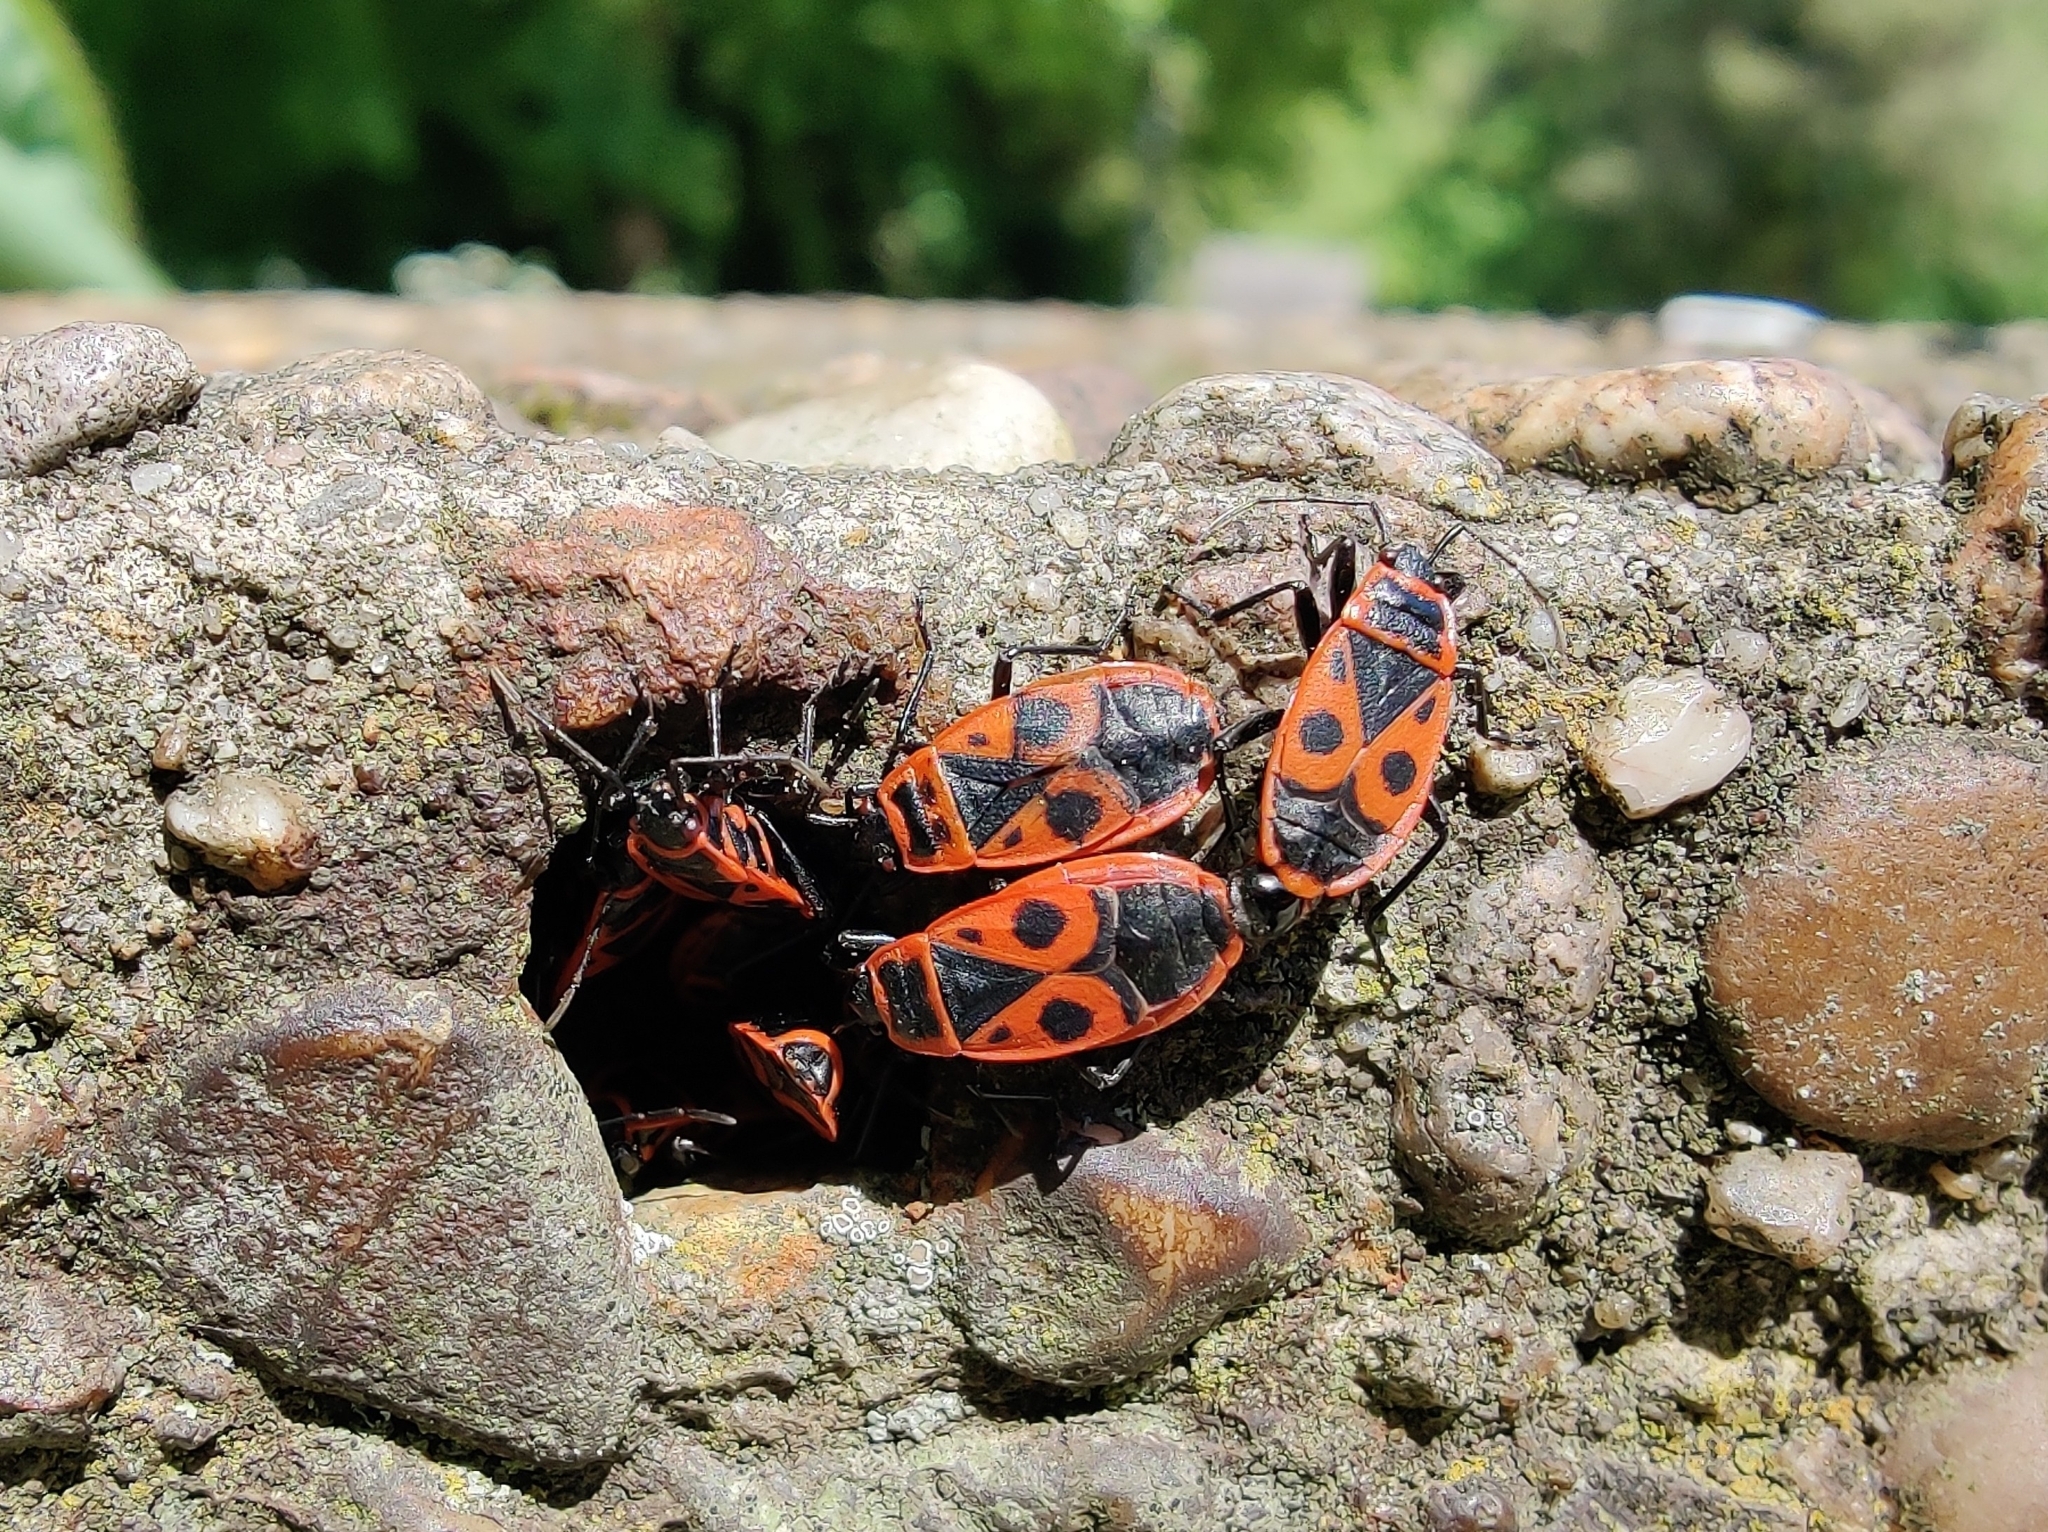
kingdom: Animalia
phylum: Arthropoda
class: Insecta
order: Hemiptera
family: Pyrrhocoridae
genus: Pyrrhocoris
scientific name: Pyrrhocoris apterus
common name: Firebug
